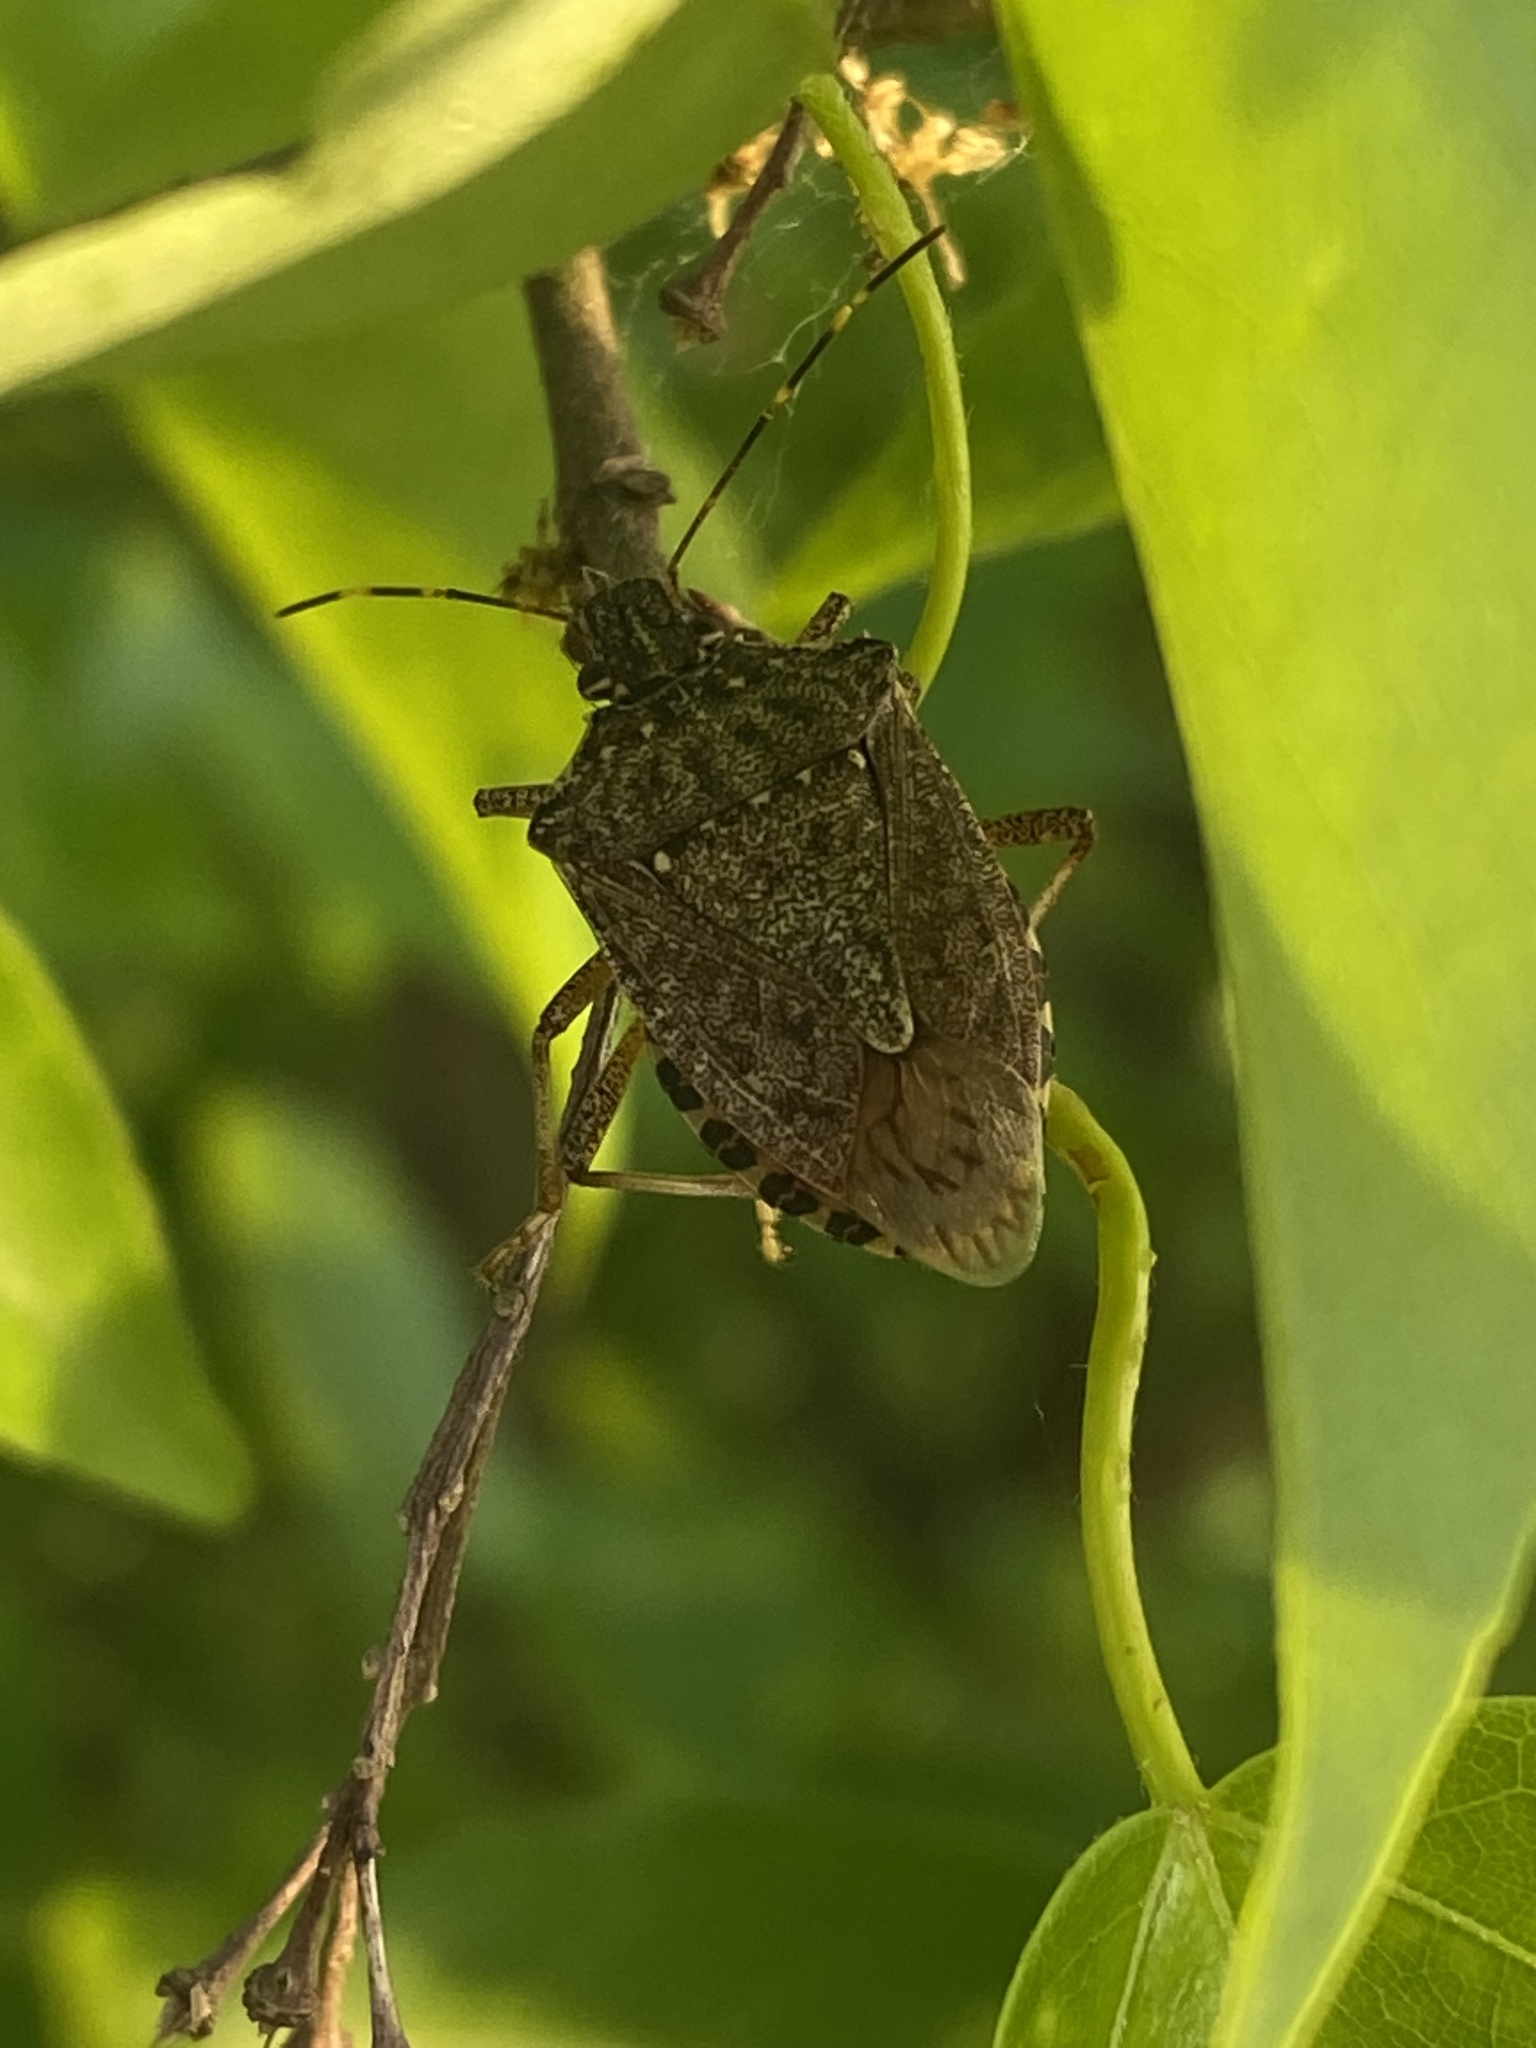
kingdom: Animalia
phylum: Arthropoda
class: Insecta
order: Hemiptera
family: Pentatomidae
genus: Halyomorpha
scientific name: Halyomorpha halys
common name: Brown marmorated stink bug
